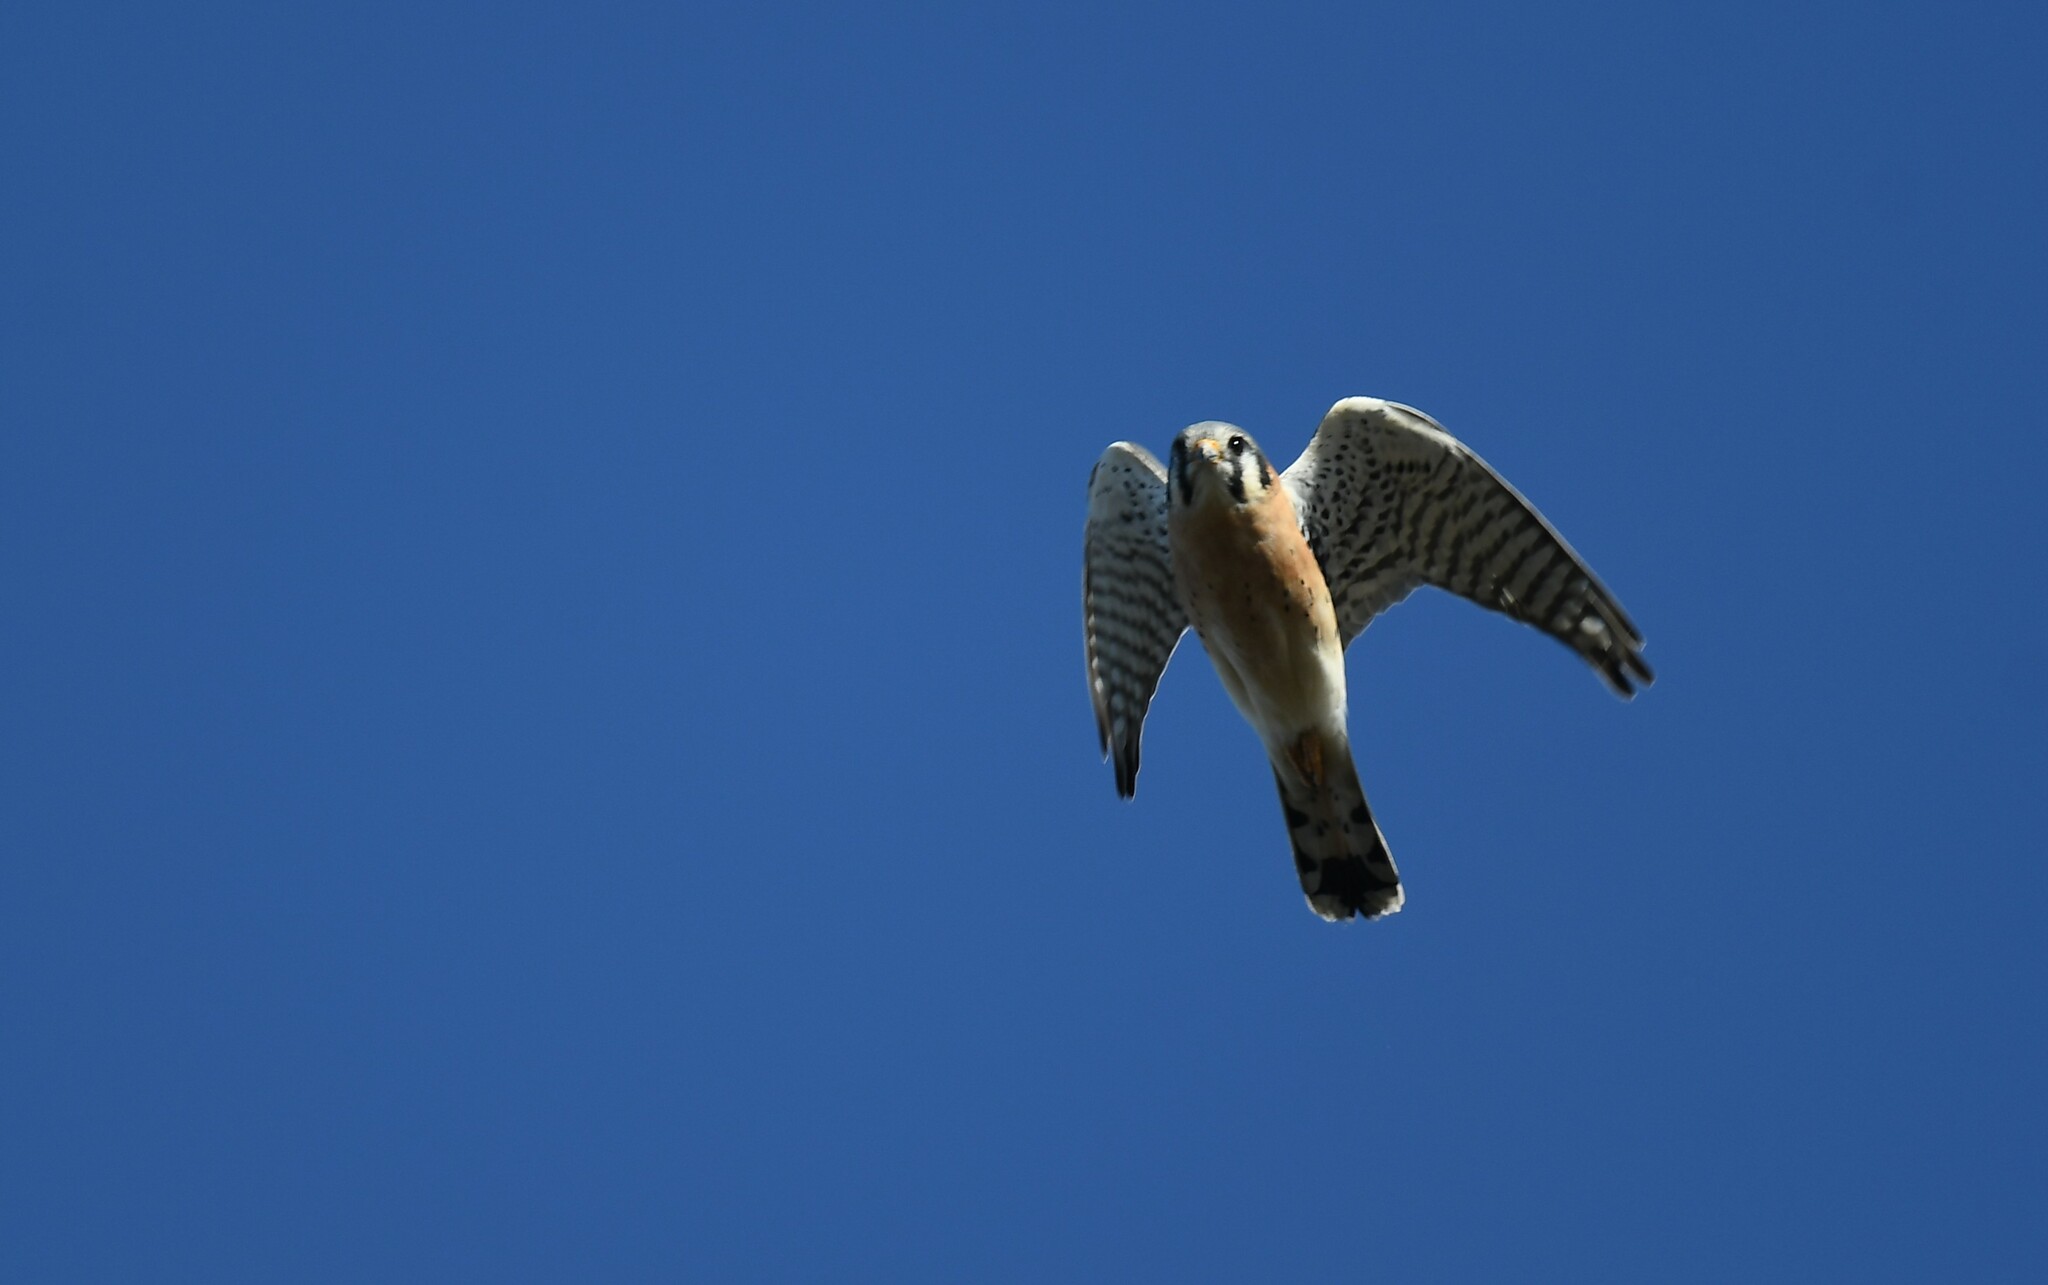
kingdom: Animalia
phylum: Chordata
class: Aves
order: Falconiformes
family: Falconidae
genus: Falco
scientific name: Falco sparverius
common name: American kestrel
